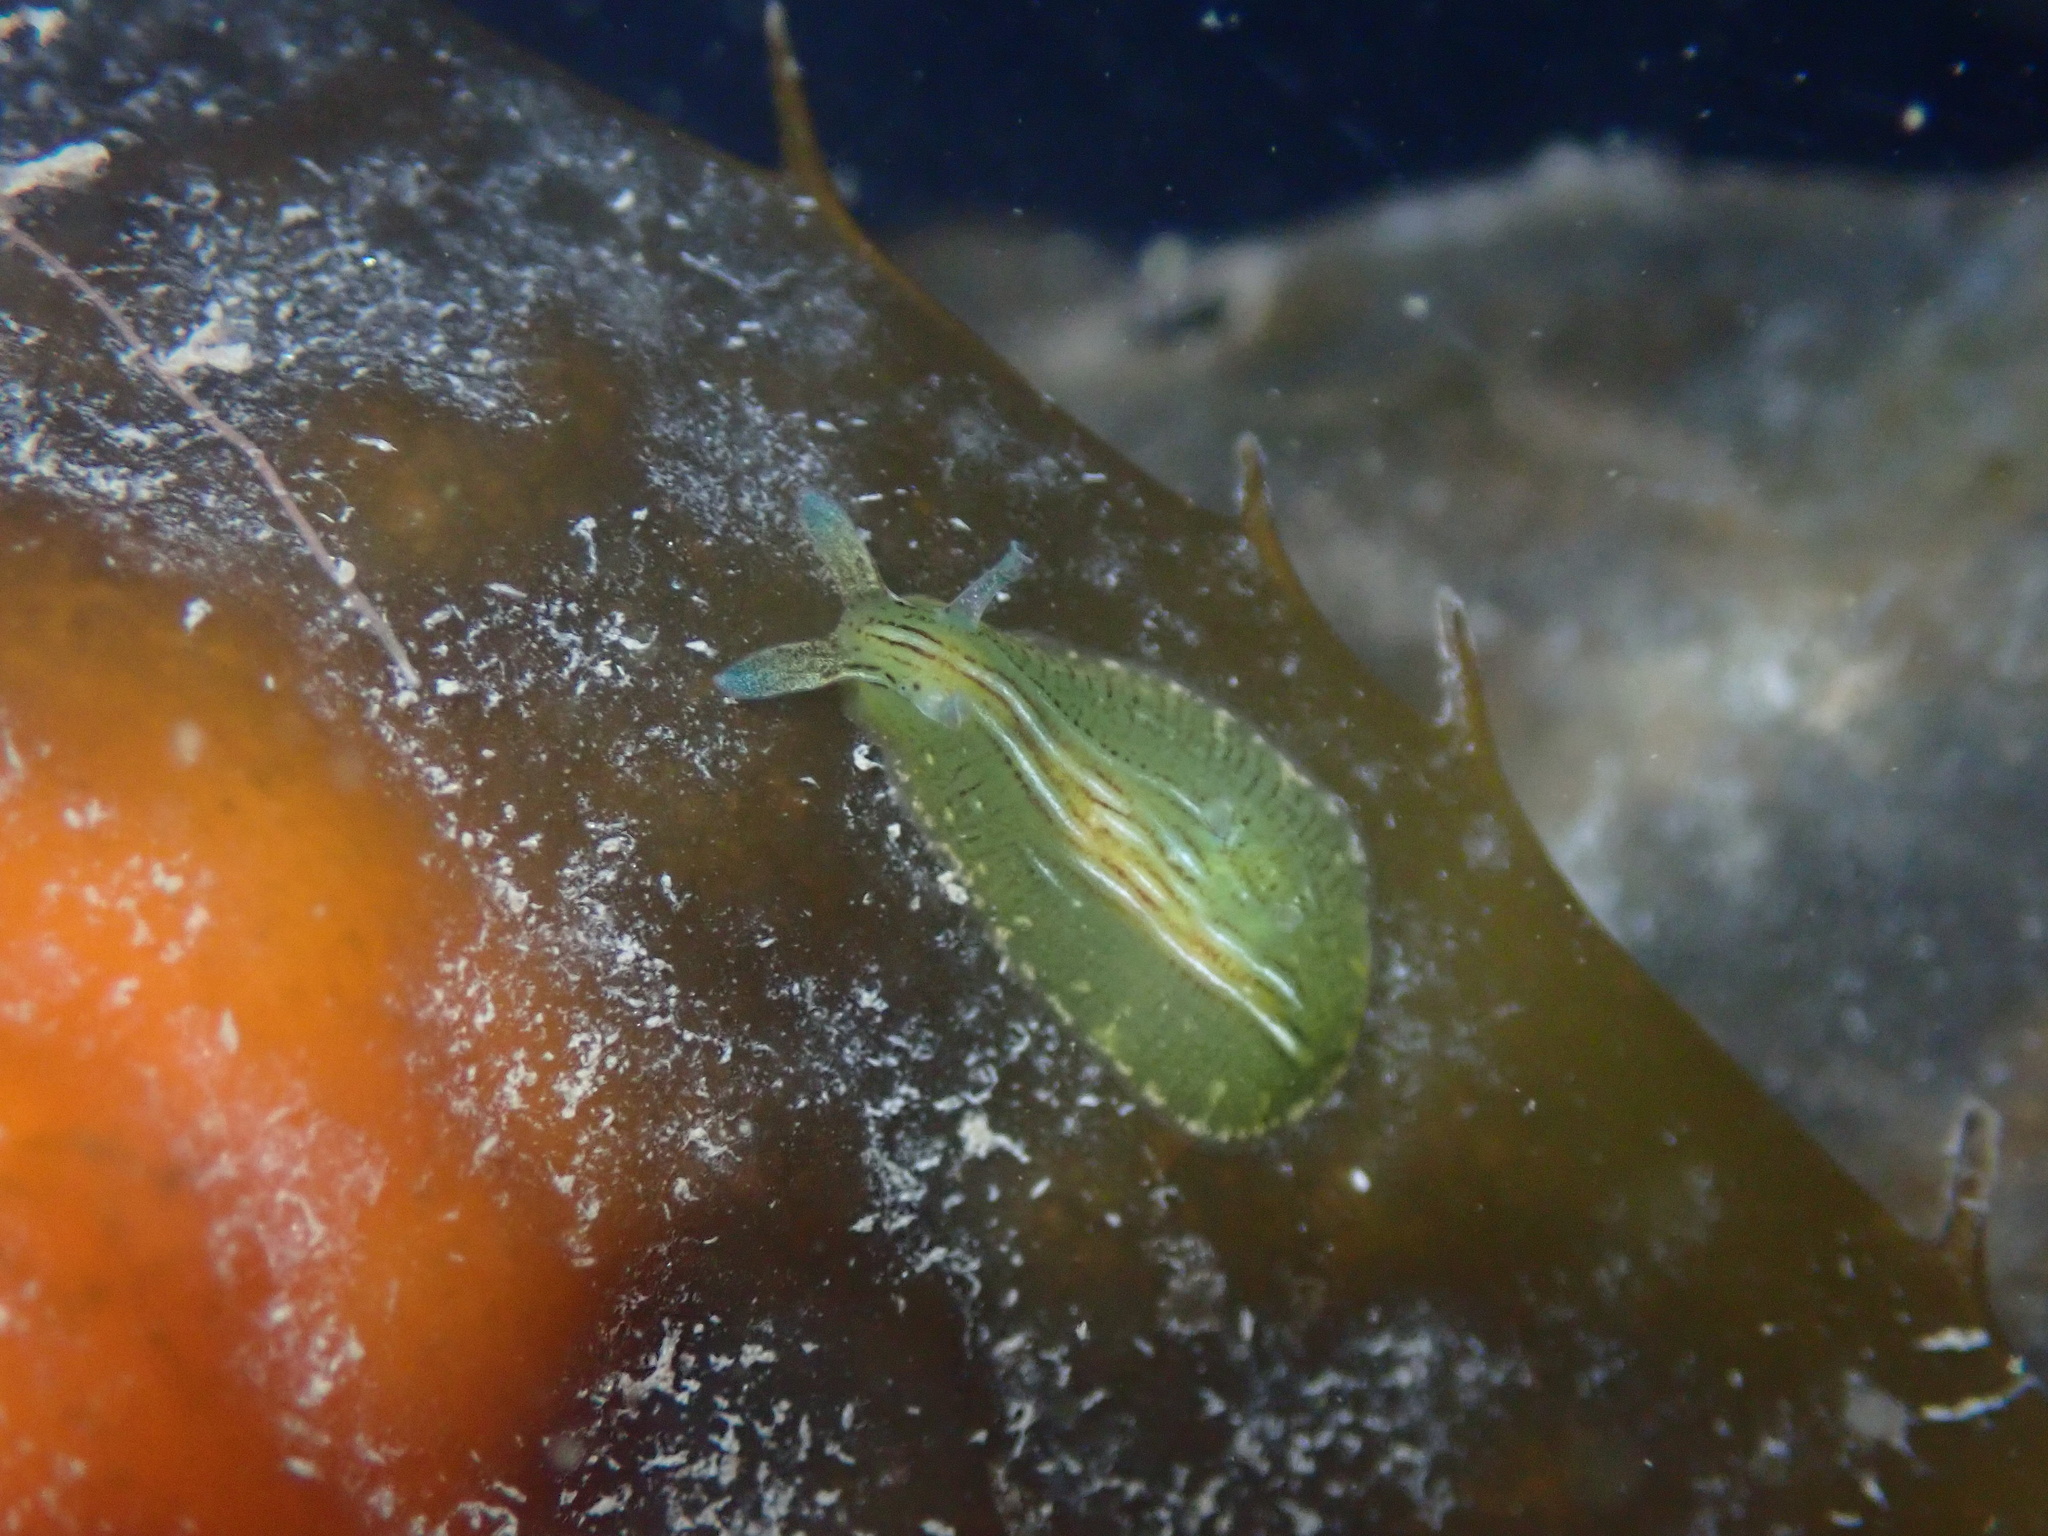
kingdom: Animalia
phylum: Mollusca
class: Gastropoda
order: Aplysiida
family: Aplysiidae
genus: Phyllaplysia
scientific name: Phyllaplysia taylori
